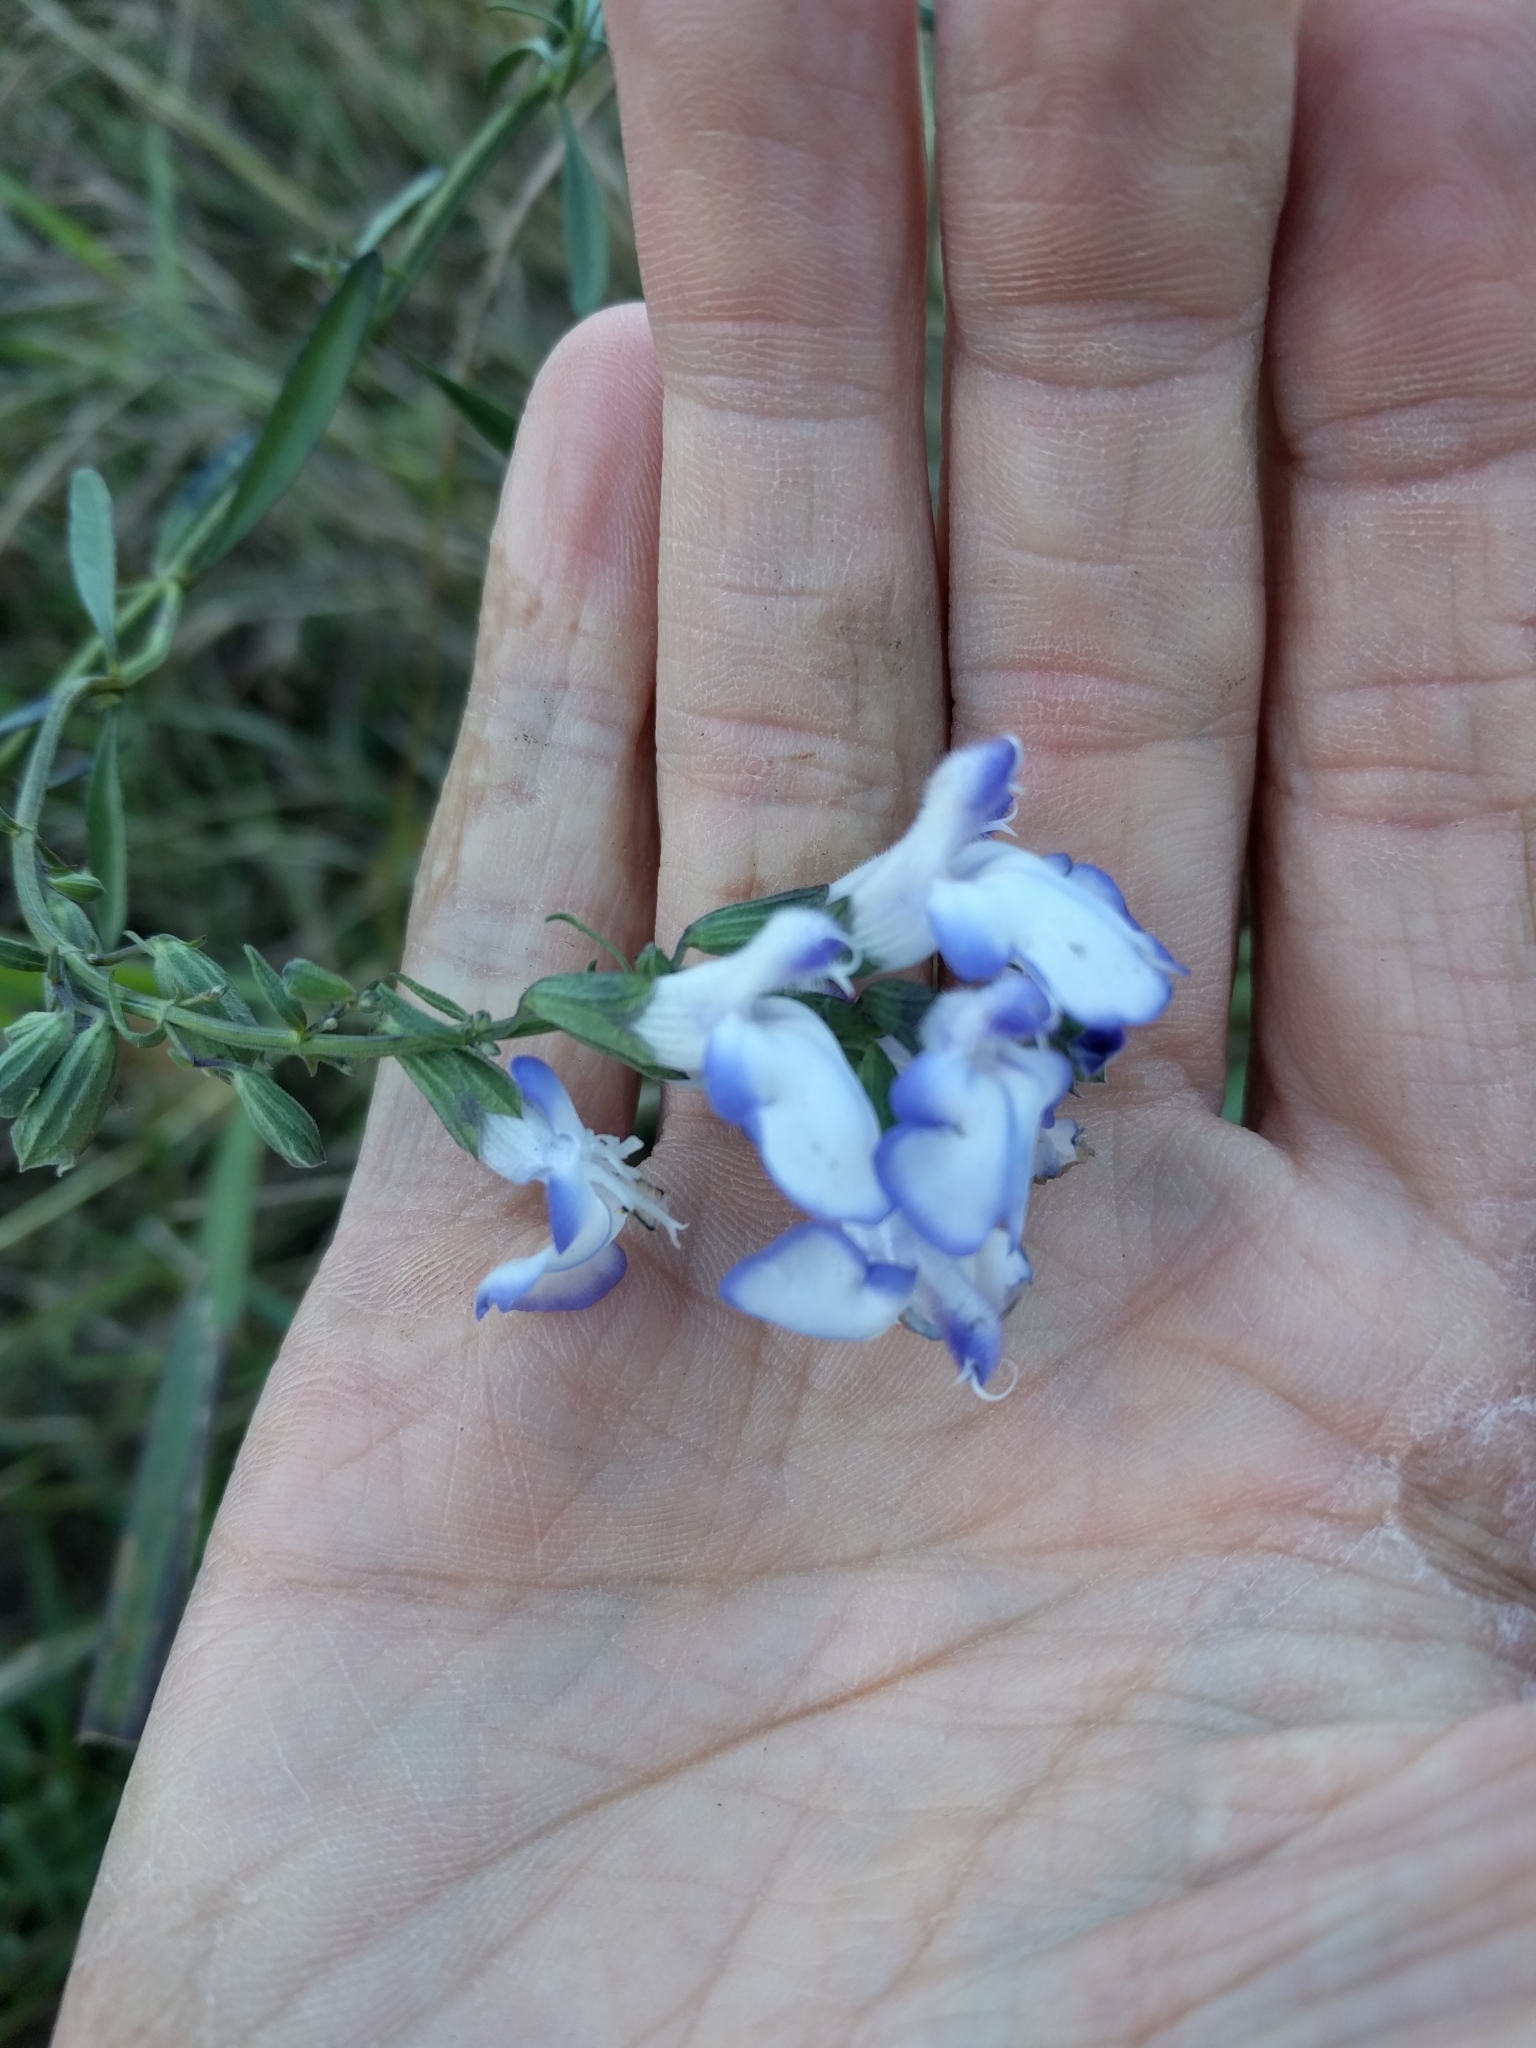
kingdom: Plantae
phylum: Tracheophyta
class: Magnoliopsida
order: Lamiales
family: Lamiaceae
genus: Salvia
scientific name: Salvia azurea
